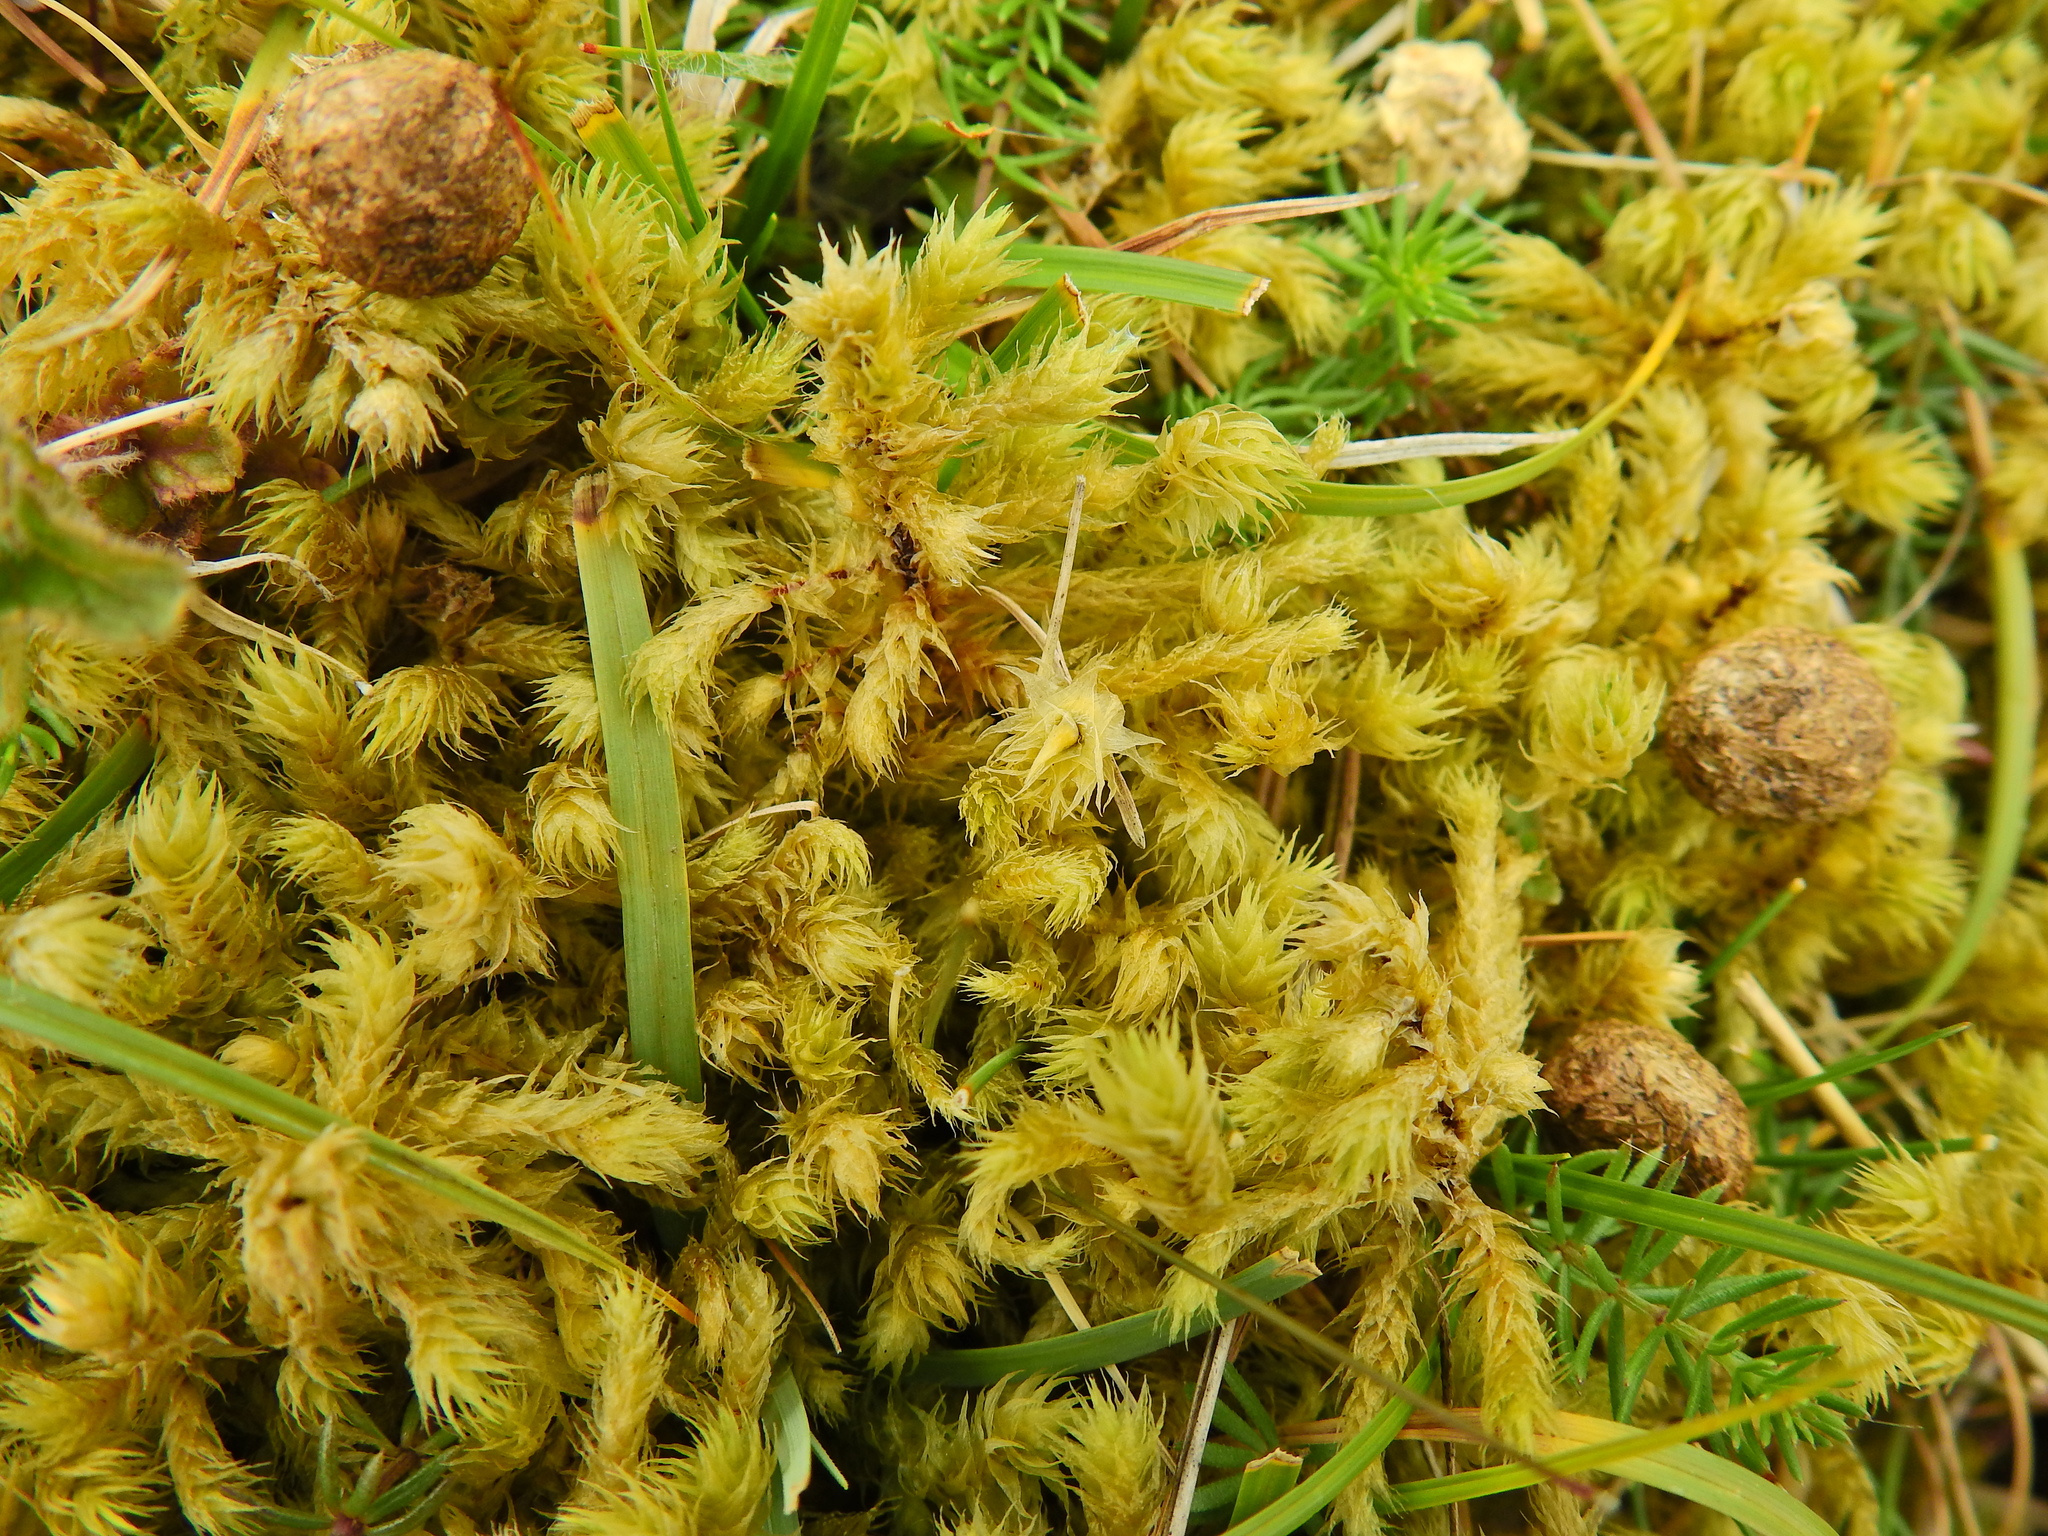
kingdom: Plantae
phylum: Bryophyta
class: Bryopsida
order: Hypnales
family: Hylocomiaceae
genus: Hylocomiadelphus
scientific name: Hylocomiadelphus triquetrus
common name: Rough goose neck moss
